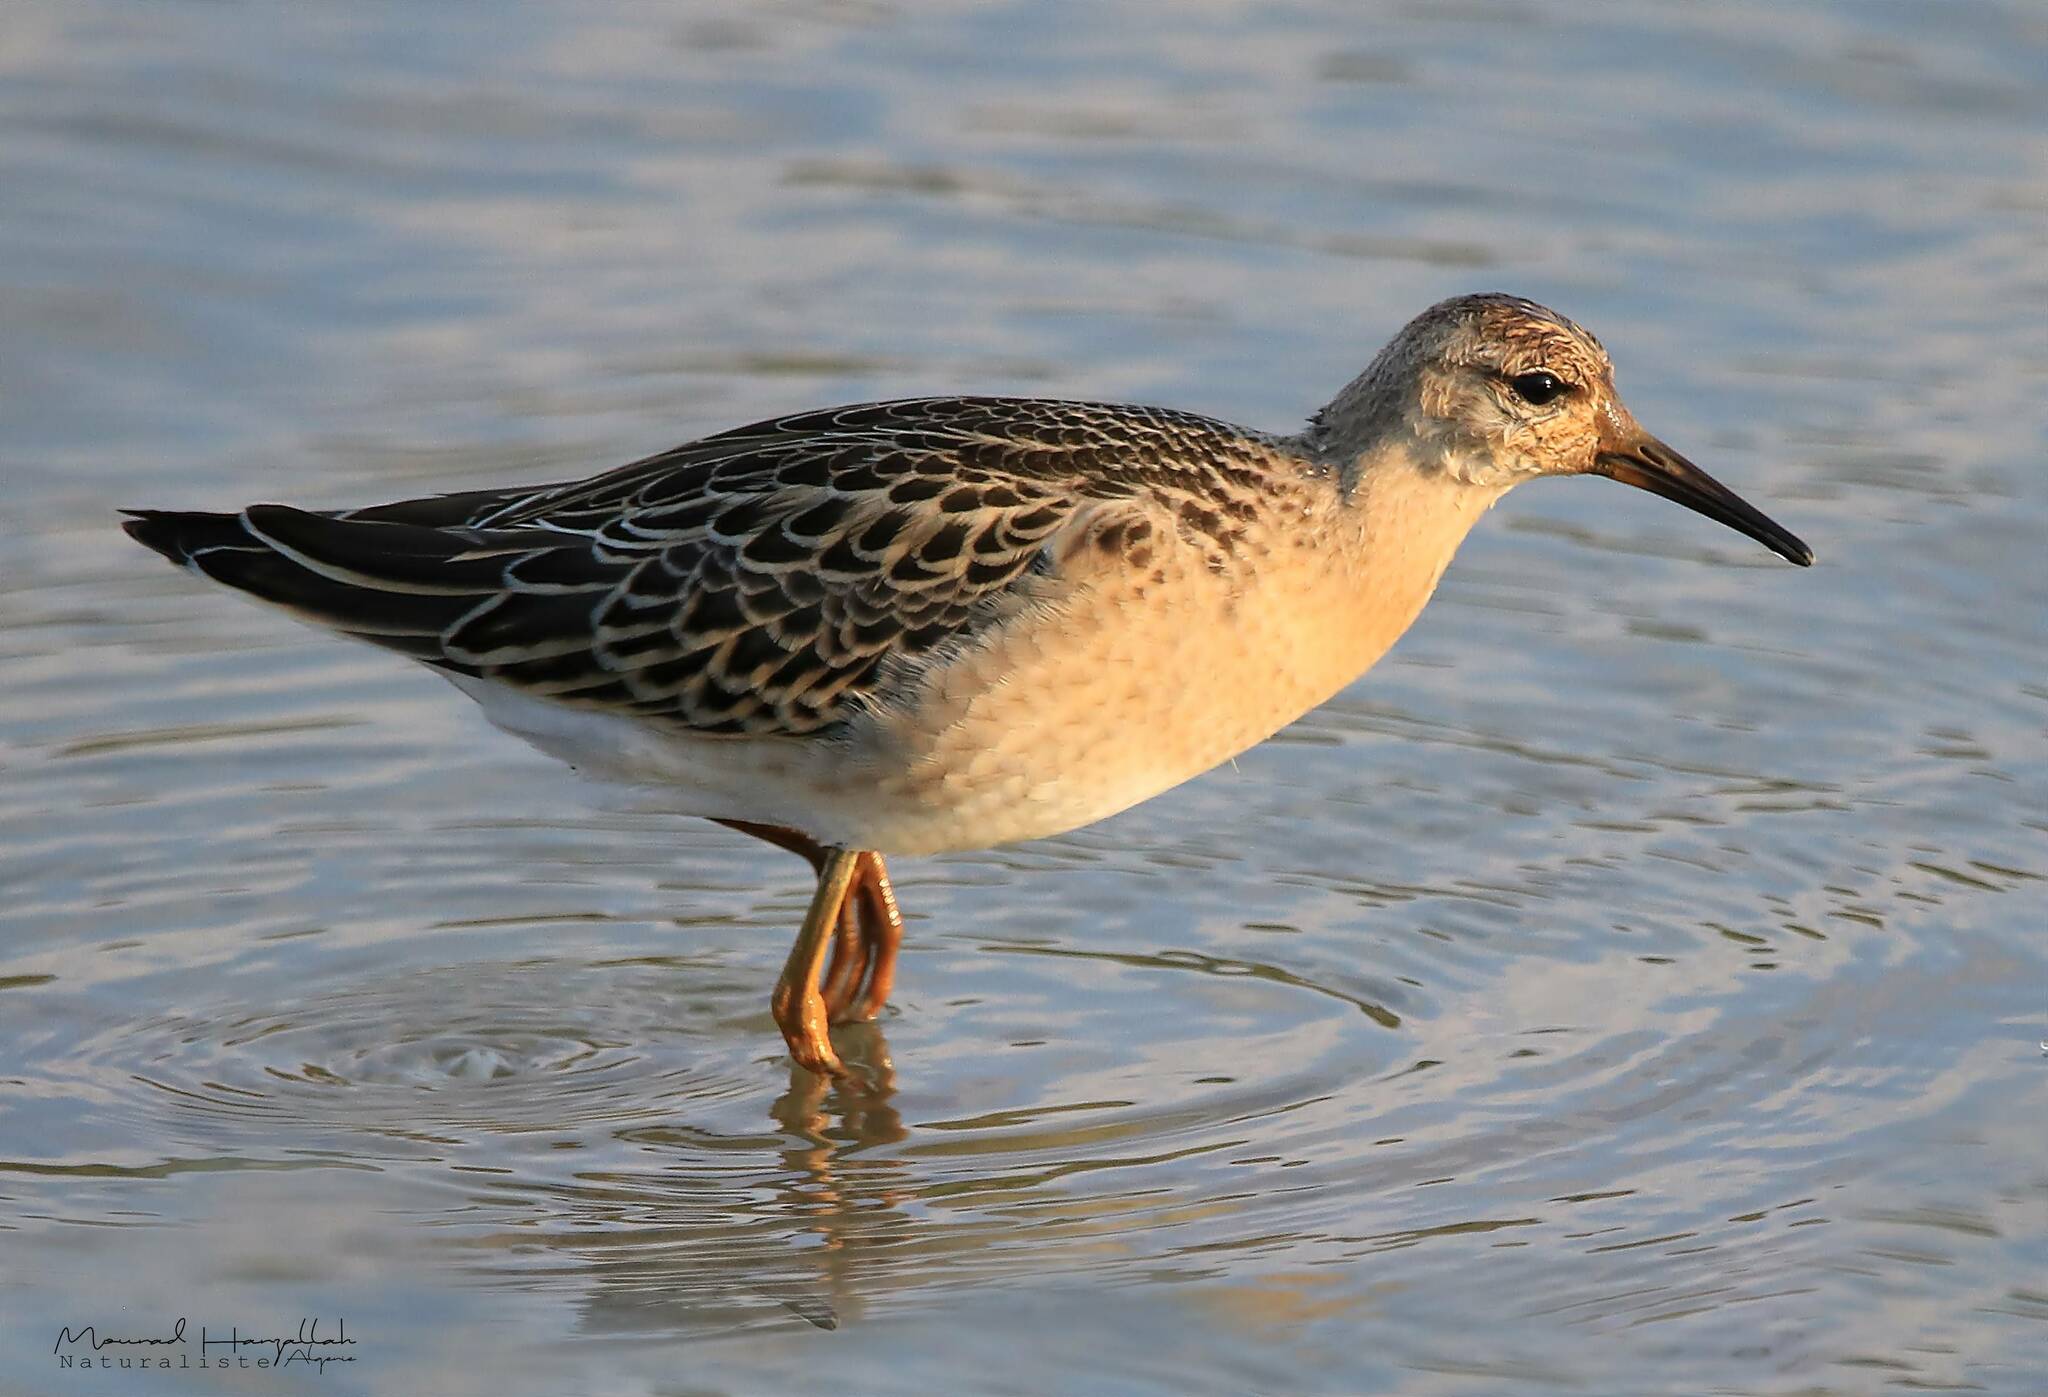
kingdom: Animalia
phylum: Chordata
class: Aves
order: Charadriiformes
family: Scolopacidae
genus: Calidris
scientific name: Calidris pugnax
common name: Ruff
